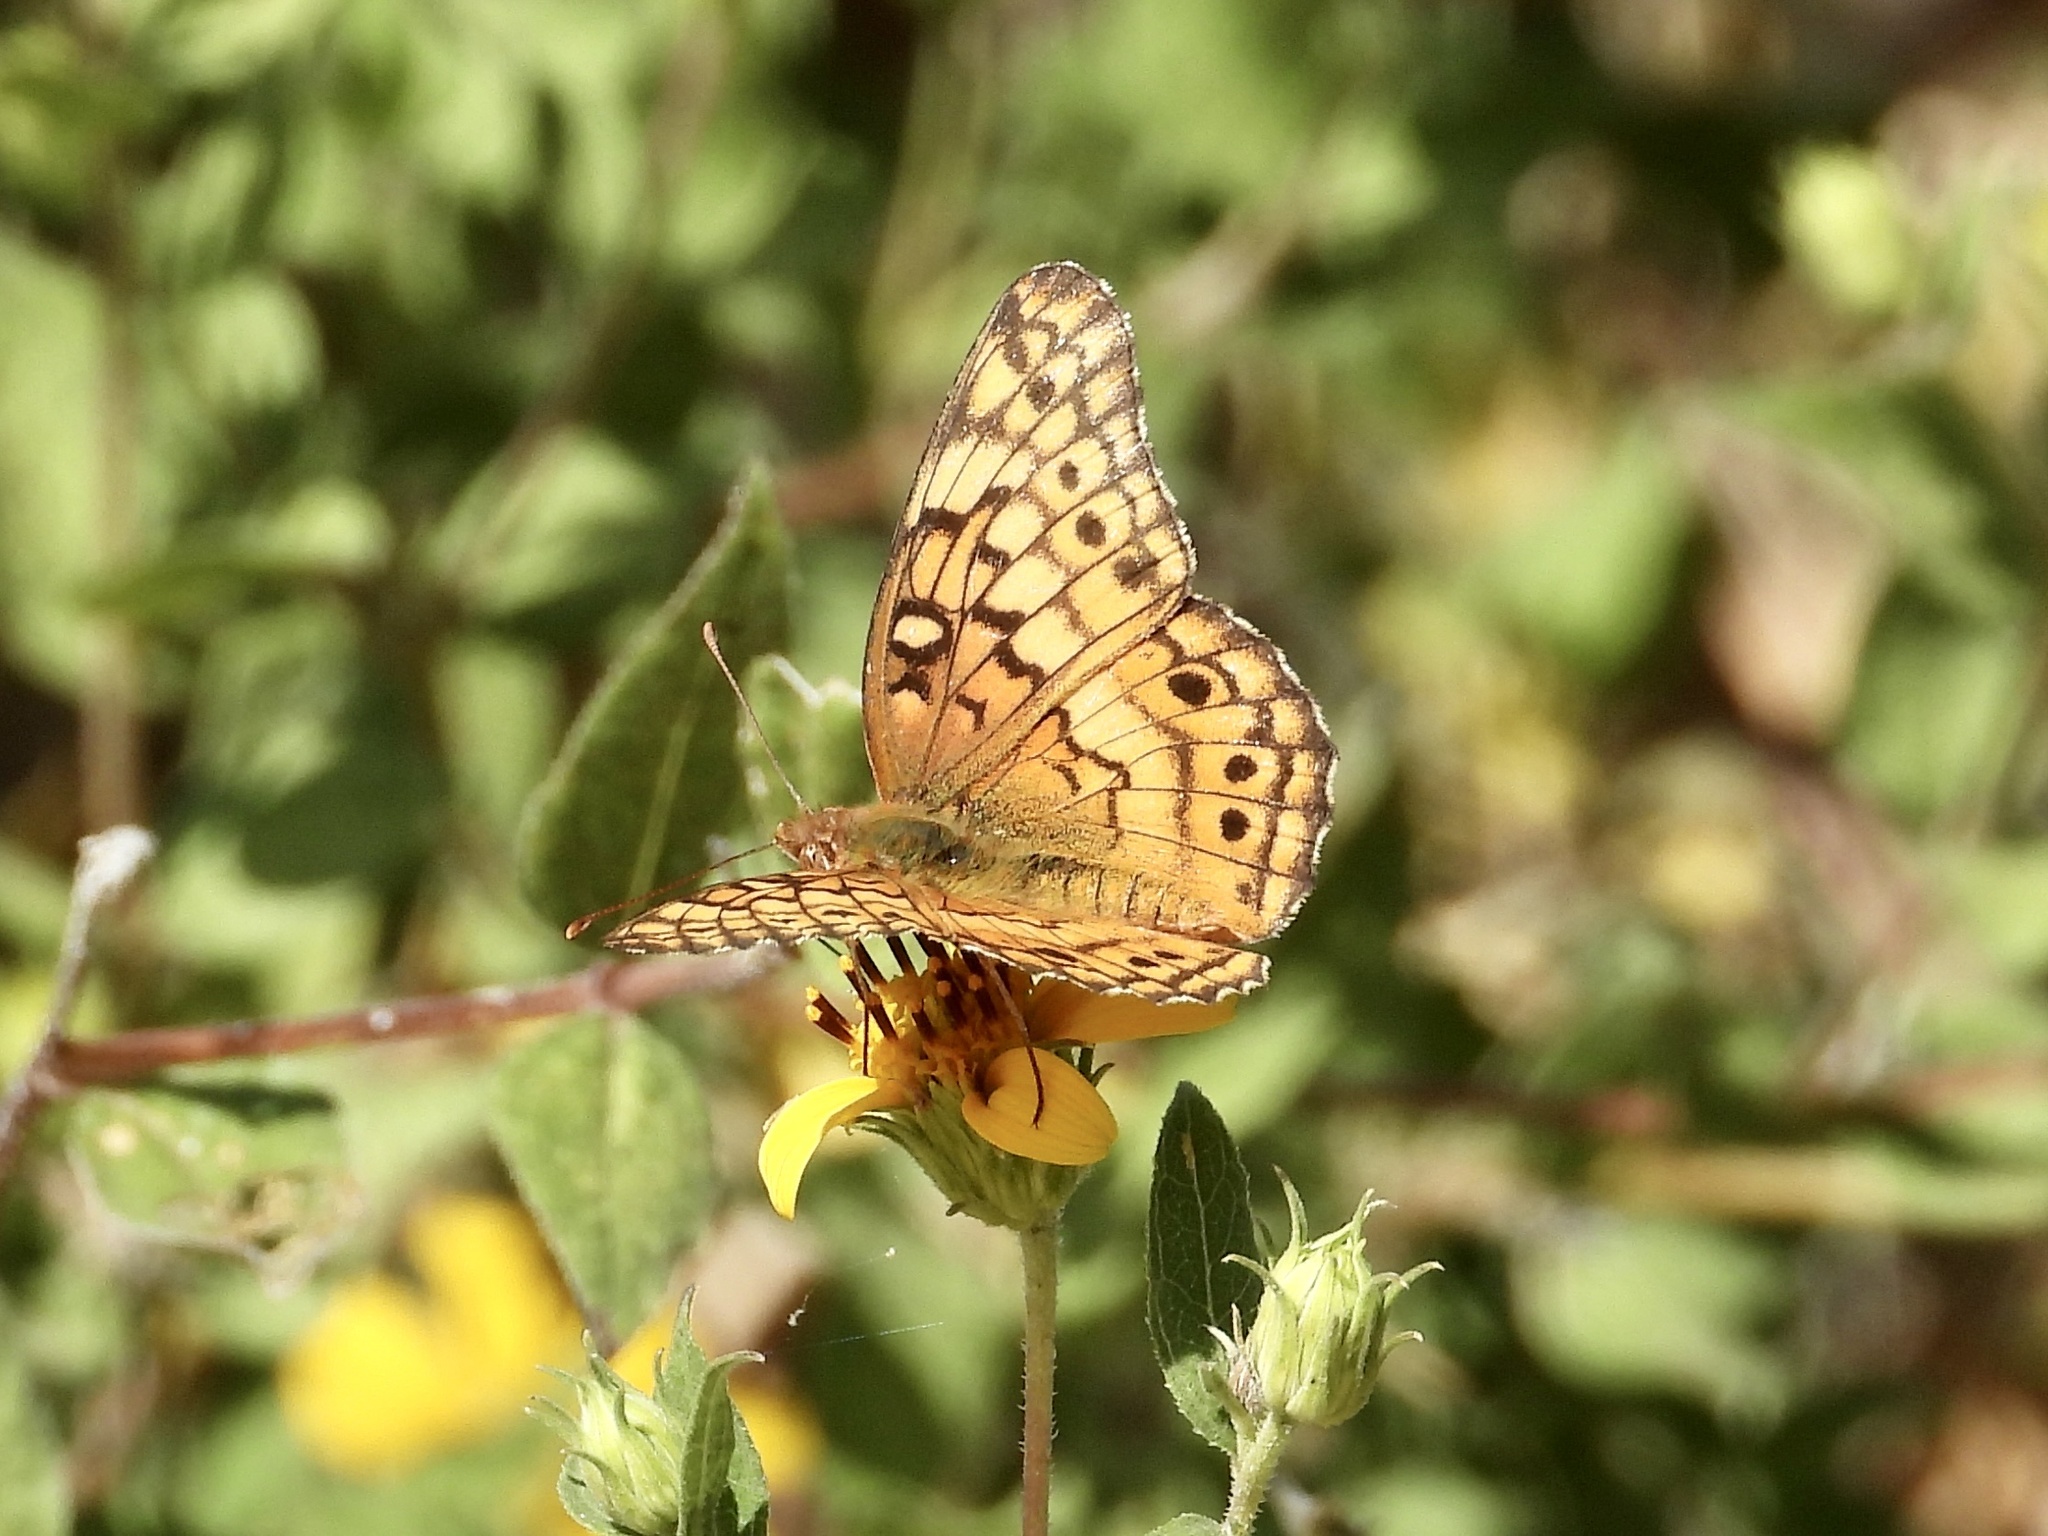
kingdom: Animalia
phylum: Arthropoda
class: Insecta
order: Lepidoptera
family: Nymphalidae
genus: Euptoieta
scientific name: Euptoieta claudia
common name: Variegated fritillary
